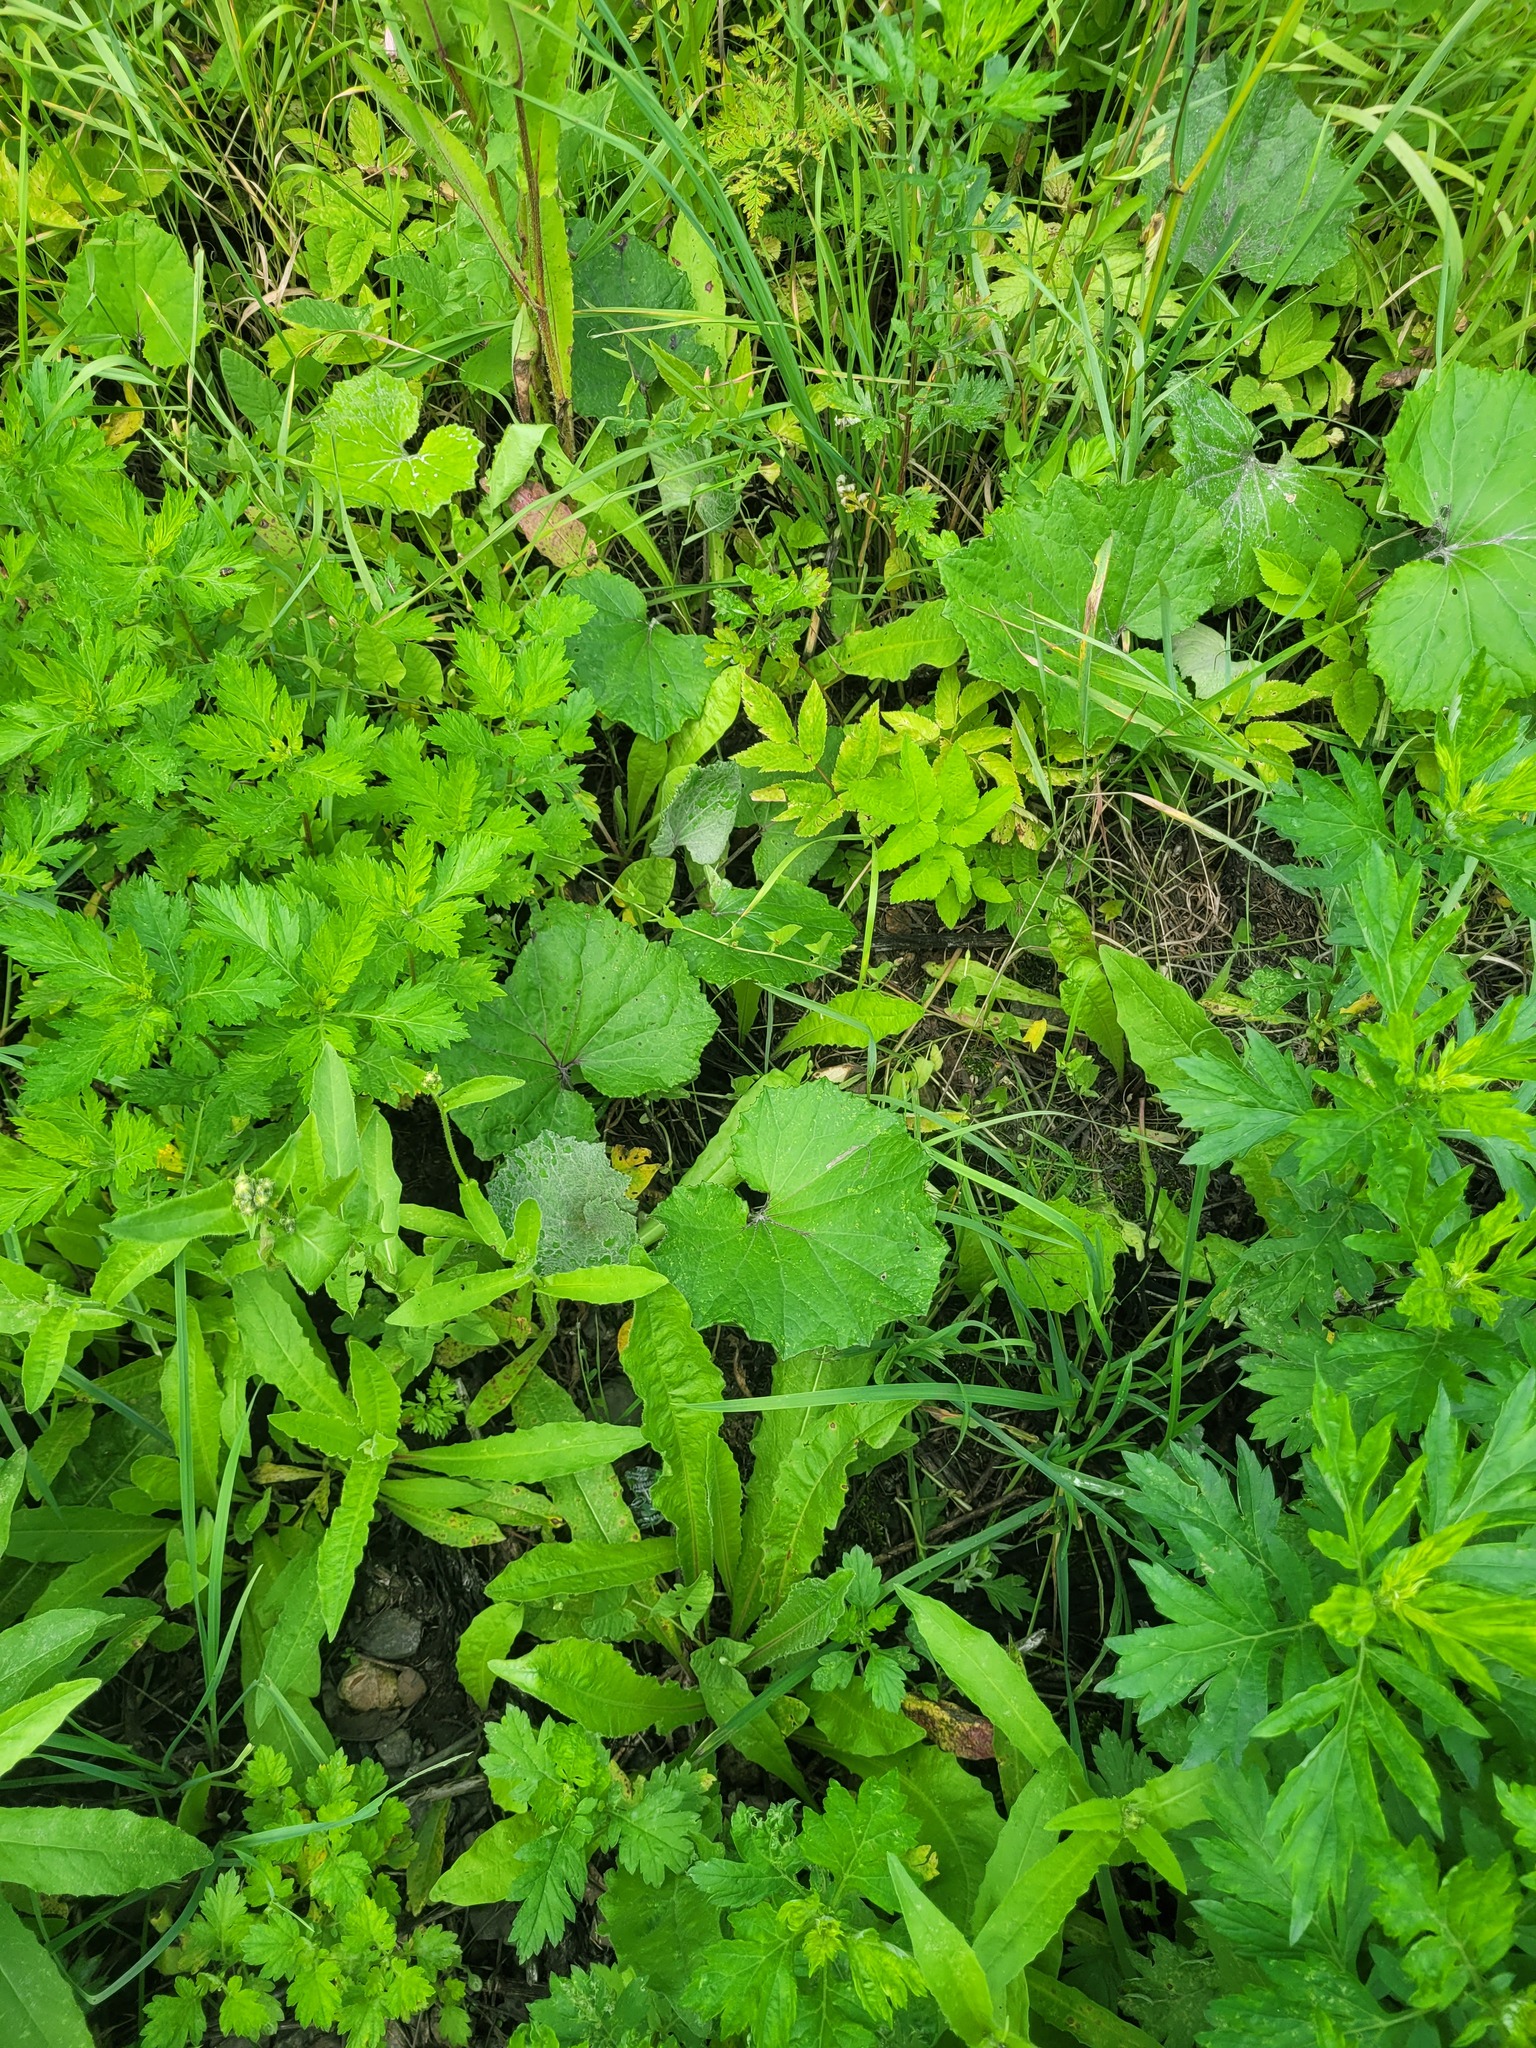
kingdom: Plantae
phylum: Tracheophyta
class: Magnoliopsida
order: Asterales
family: Asteraceae
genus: Tussilago
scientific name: Tussilago farfara
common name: Coltsfoot
